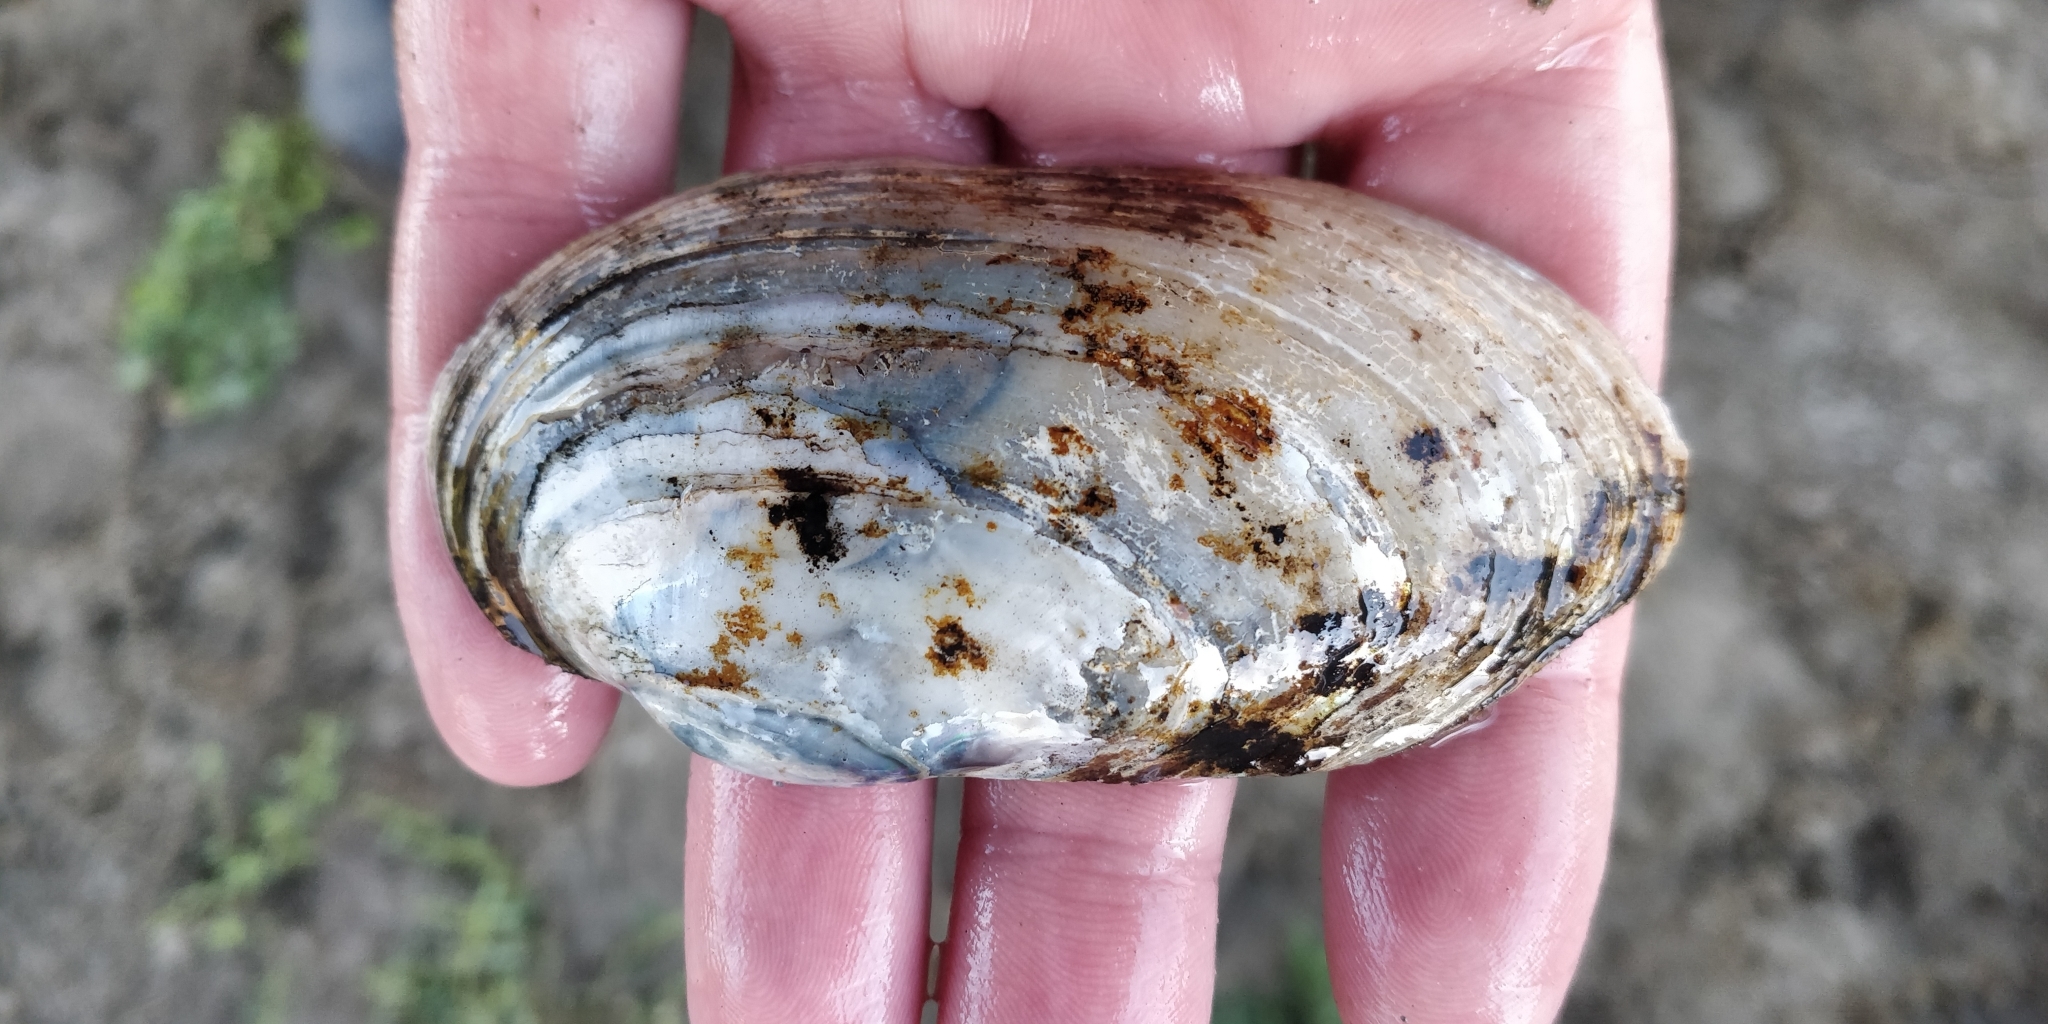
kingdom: Animalia
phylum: Mollusca
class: Bivalvia
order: Unionida
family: Unionidae
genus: Lampsilis
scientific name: Lampsilis siliquoidea
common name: Fatmucket
